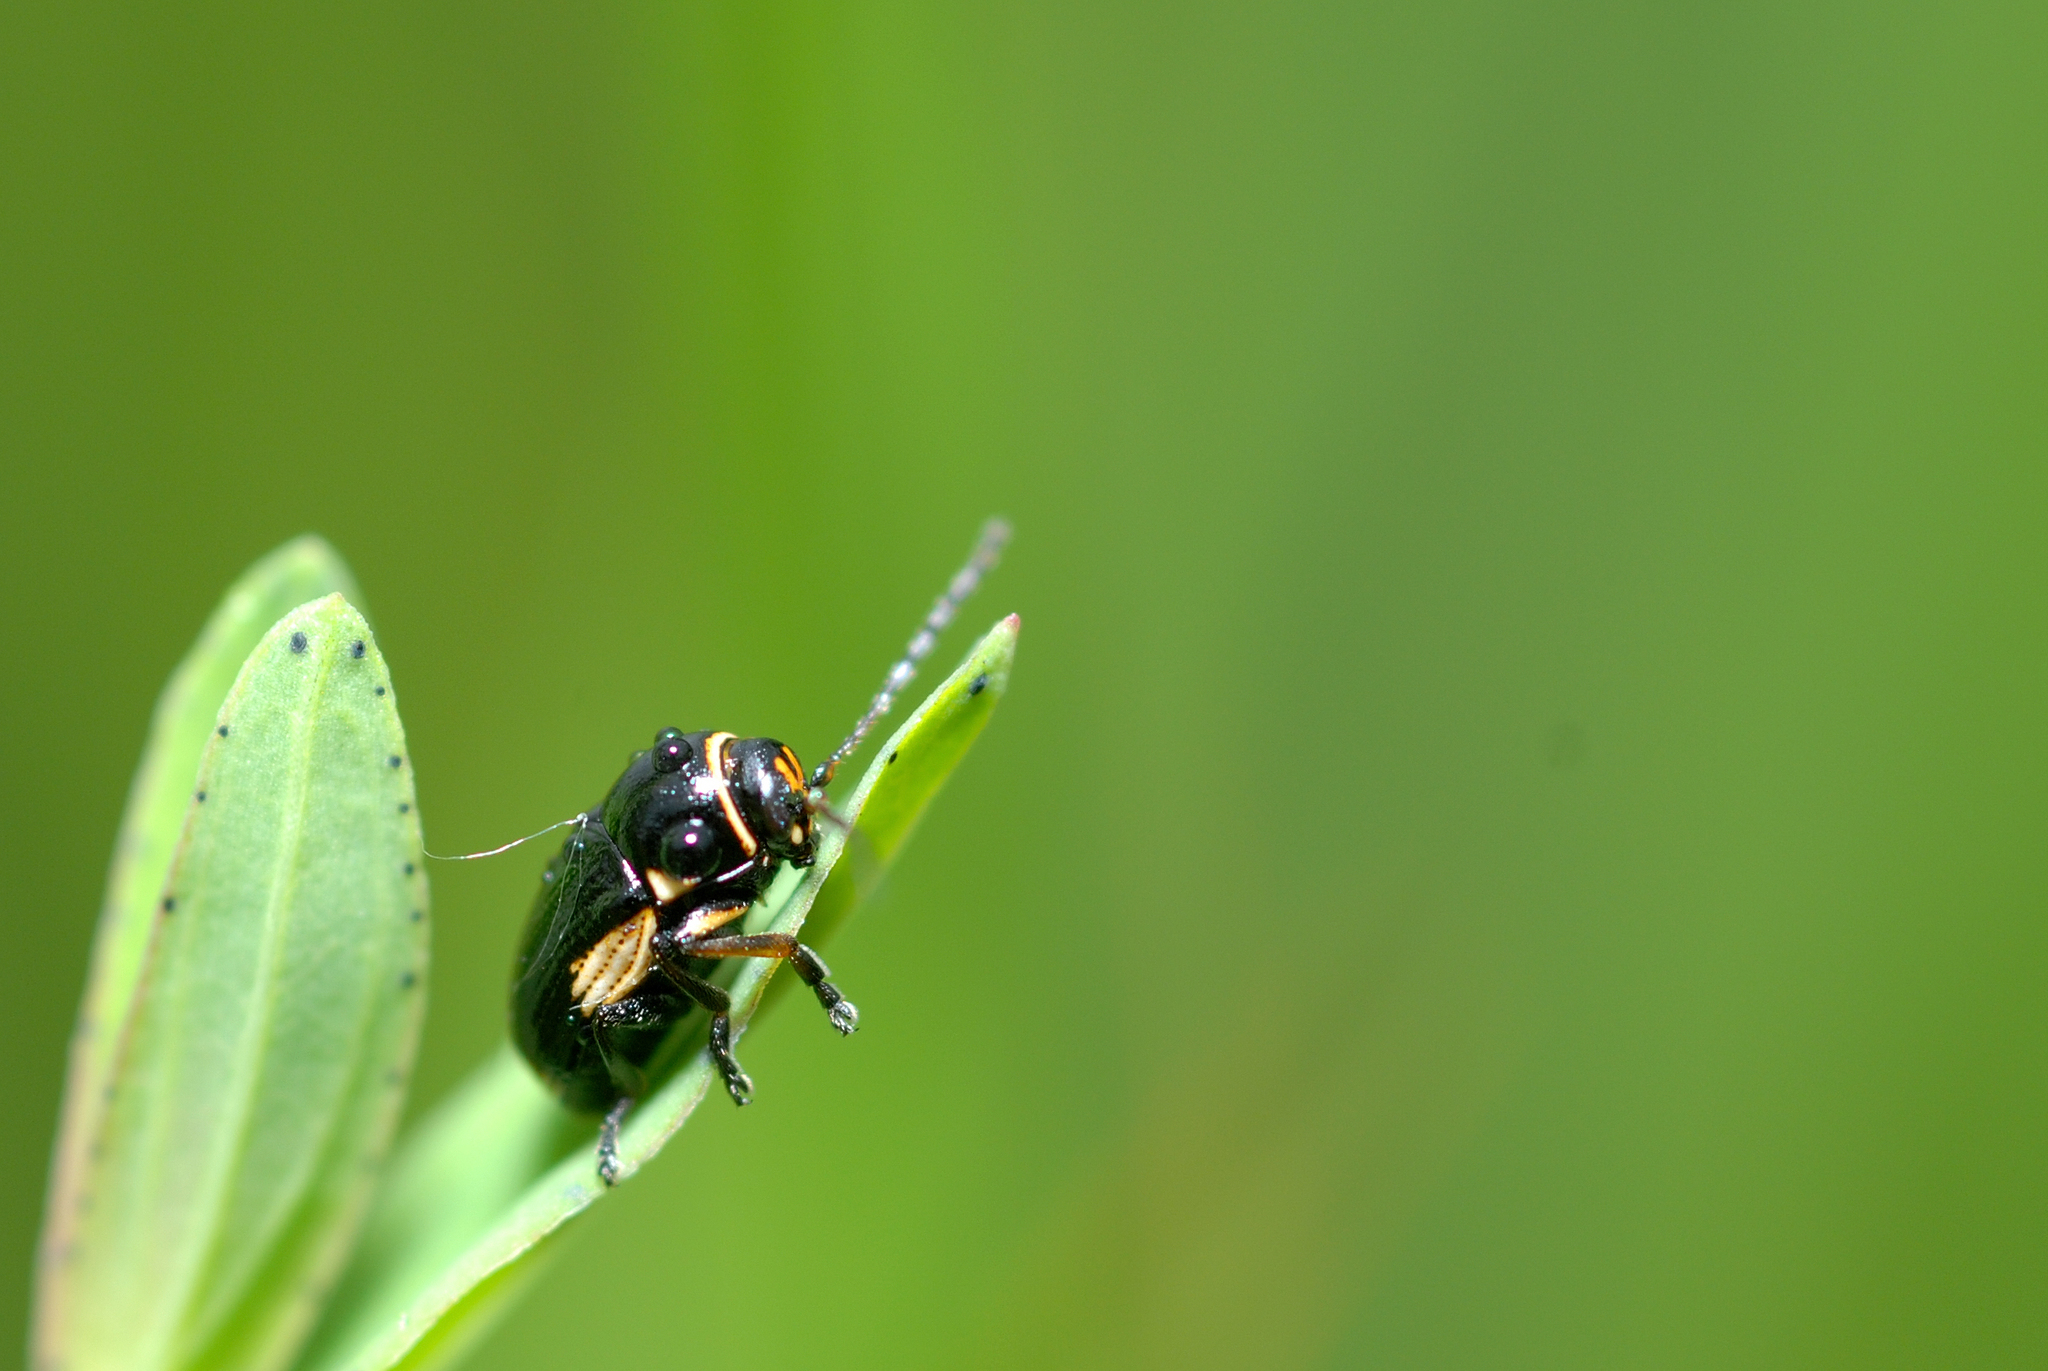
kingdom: Animalia
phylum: Arthropoda
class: Insecta
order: Coleoptera
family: Chrysomelidae
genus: Cryptocephalus
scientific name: Cryptocephalus moraei
